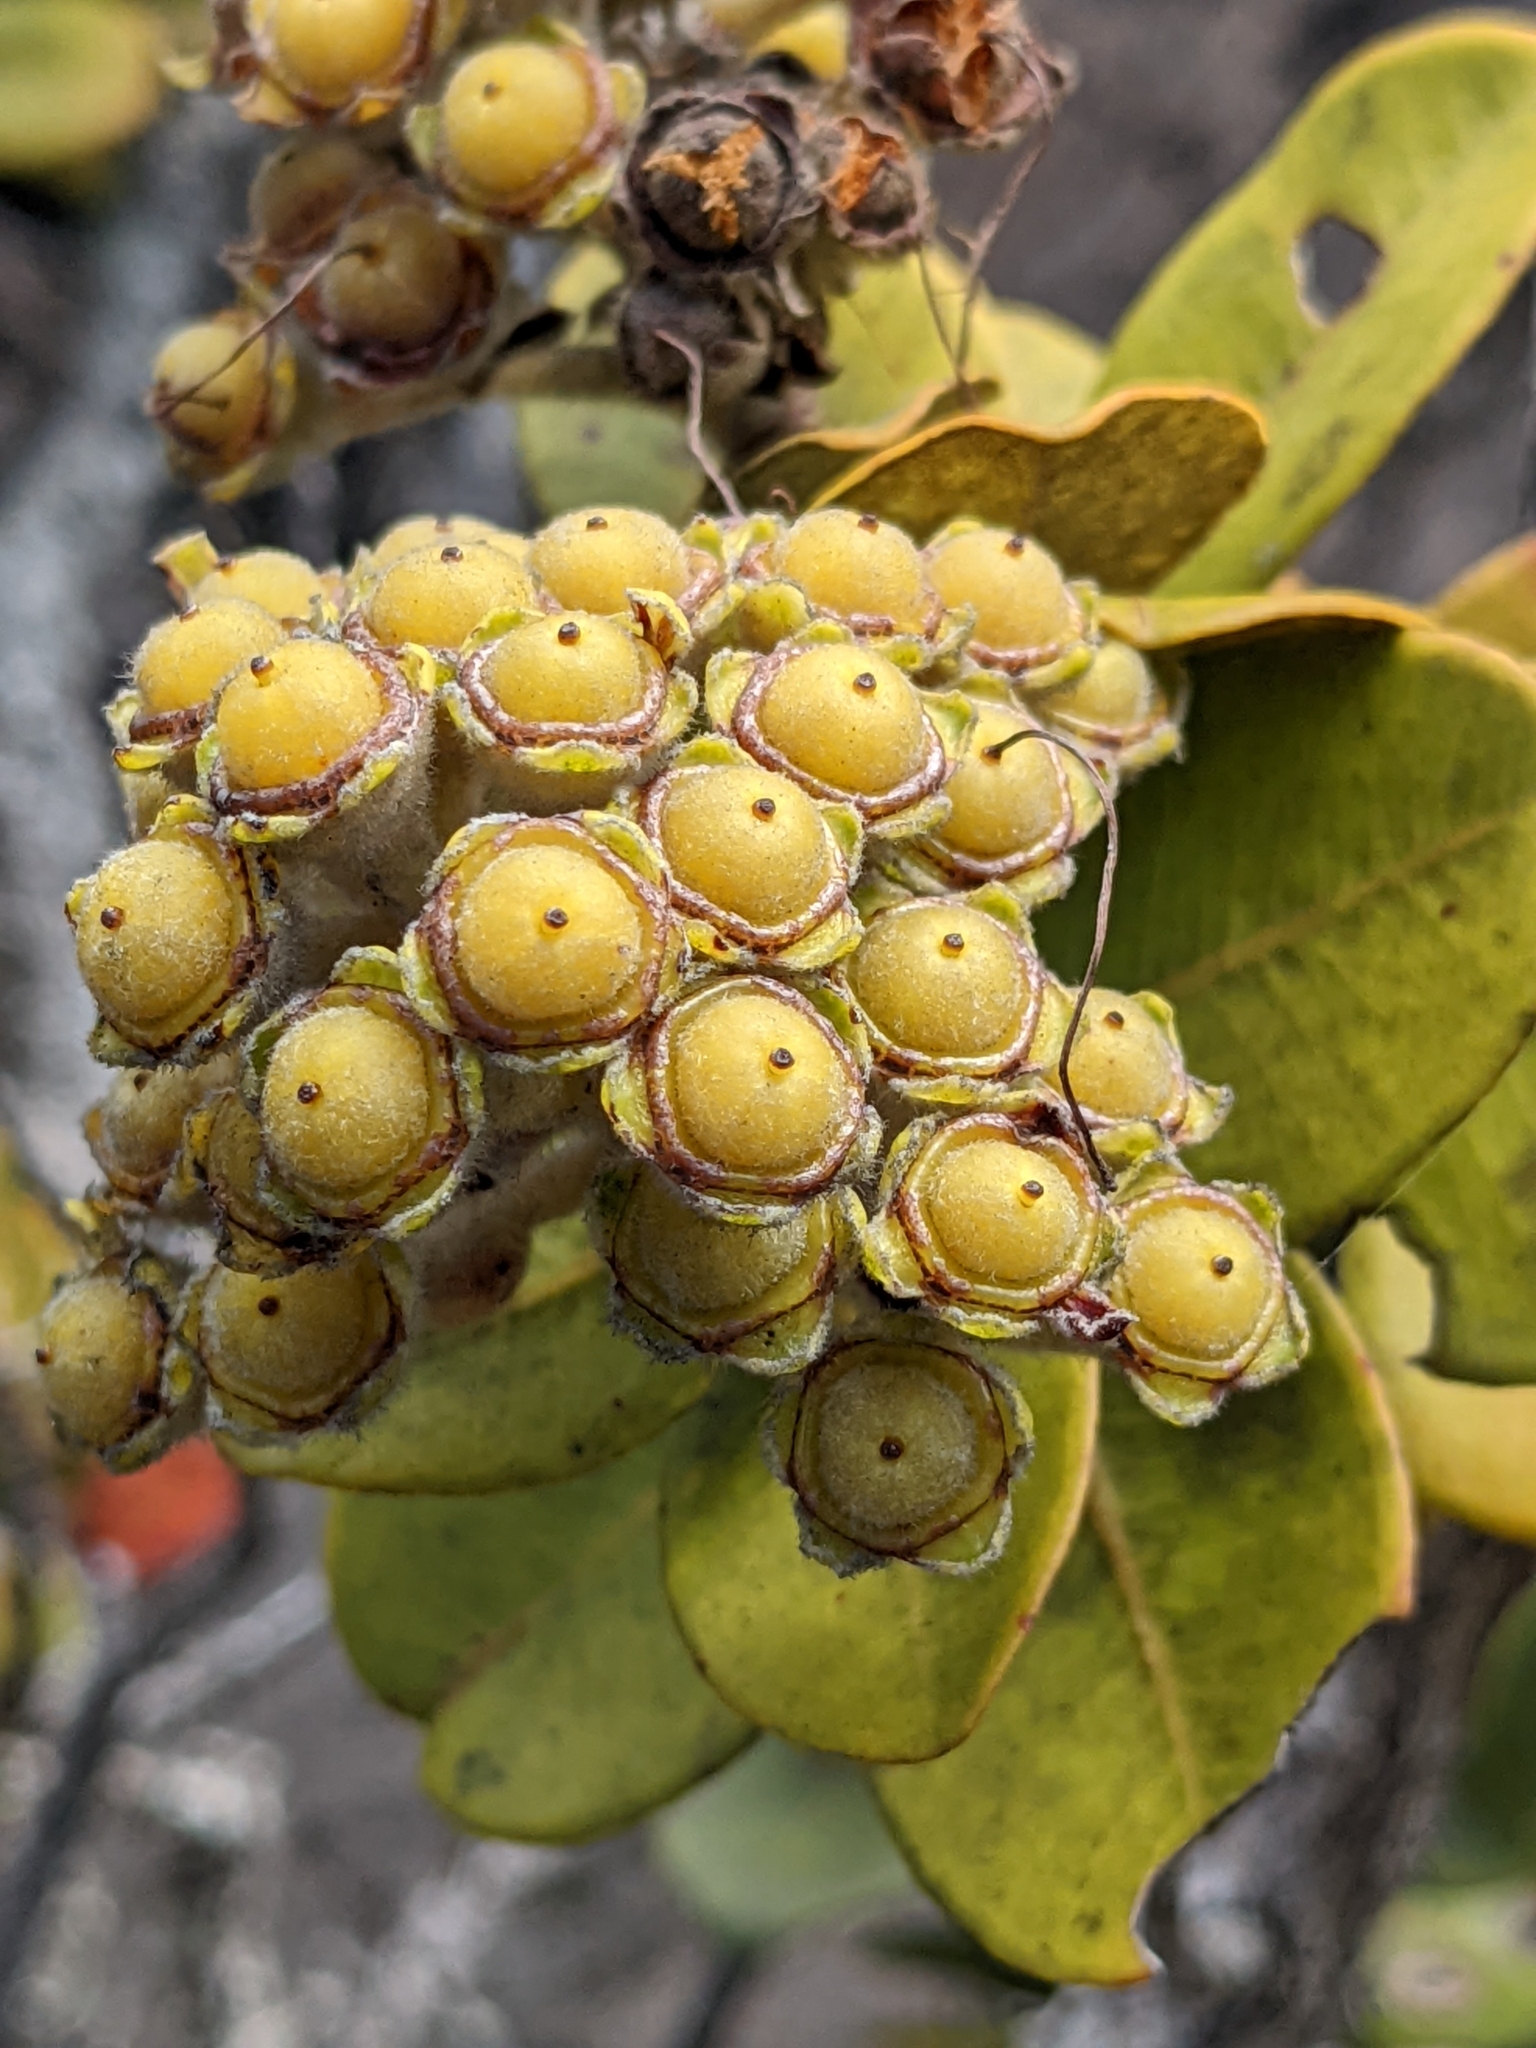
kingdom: Plantae
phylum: Tracheophyta
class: Magnoliopsida
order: Myrtales
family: Myrtaceae
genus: Metrosideros
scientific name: Metrosideros polymorpha
